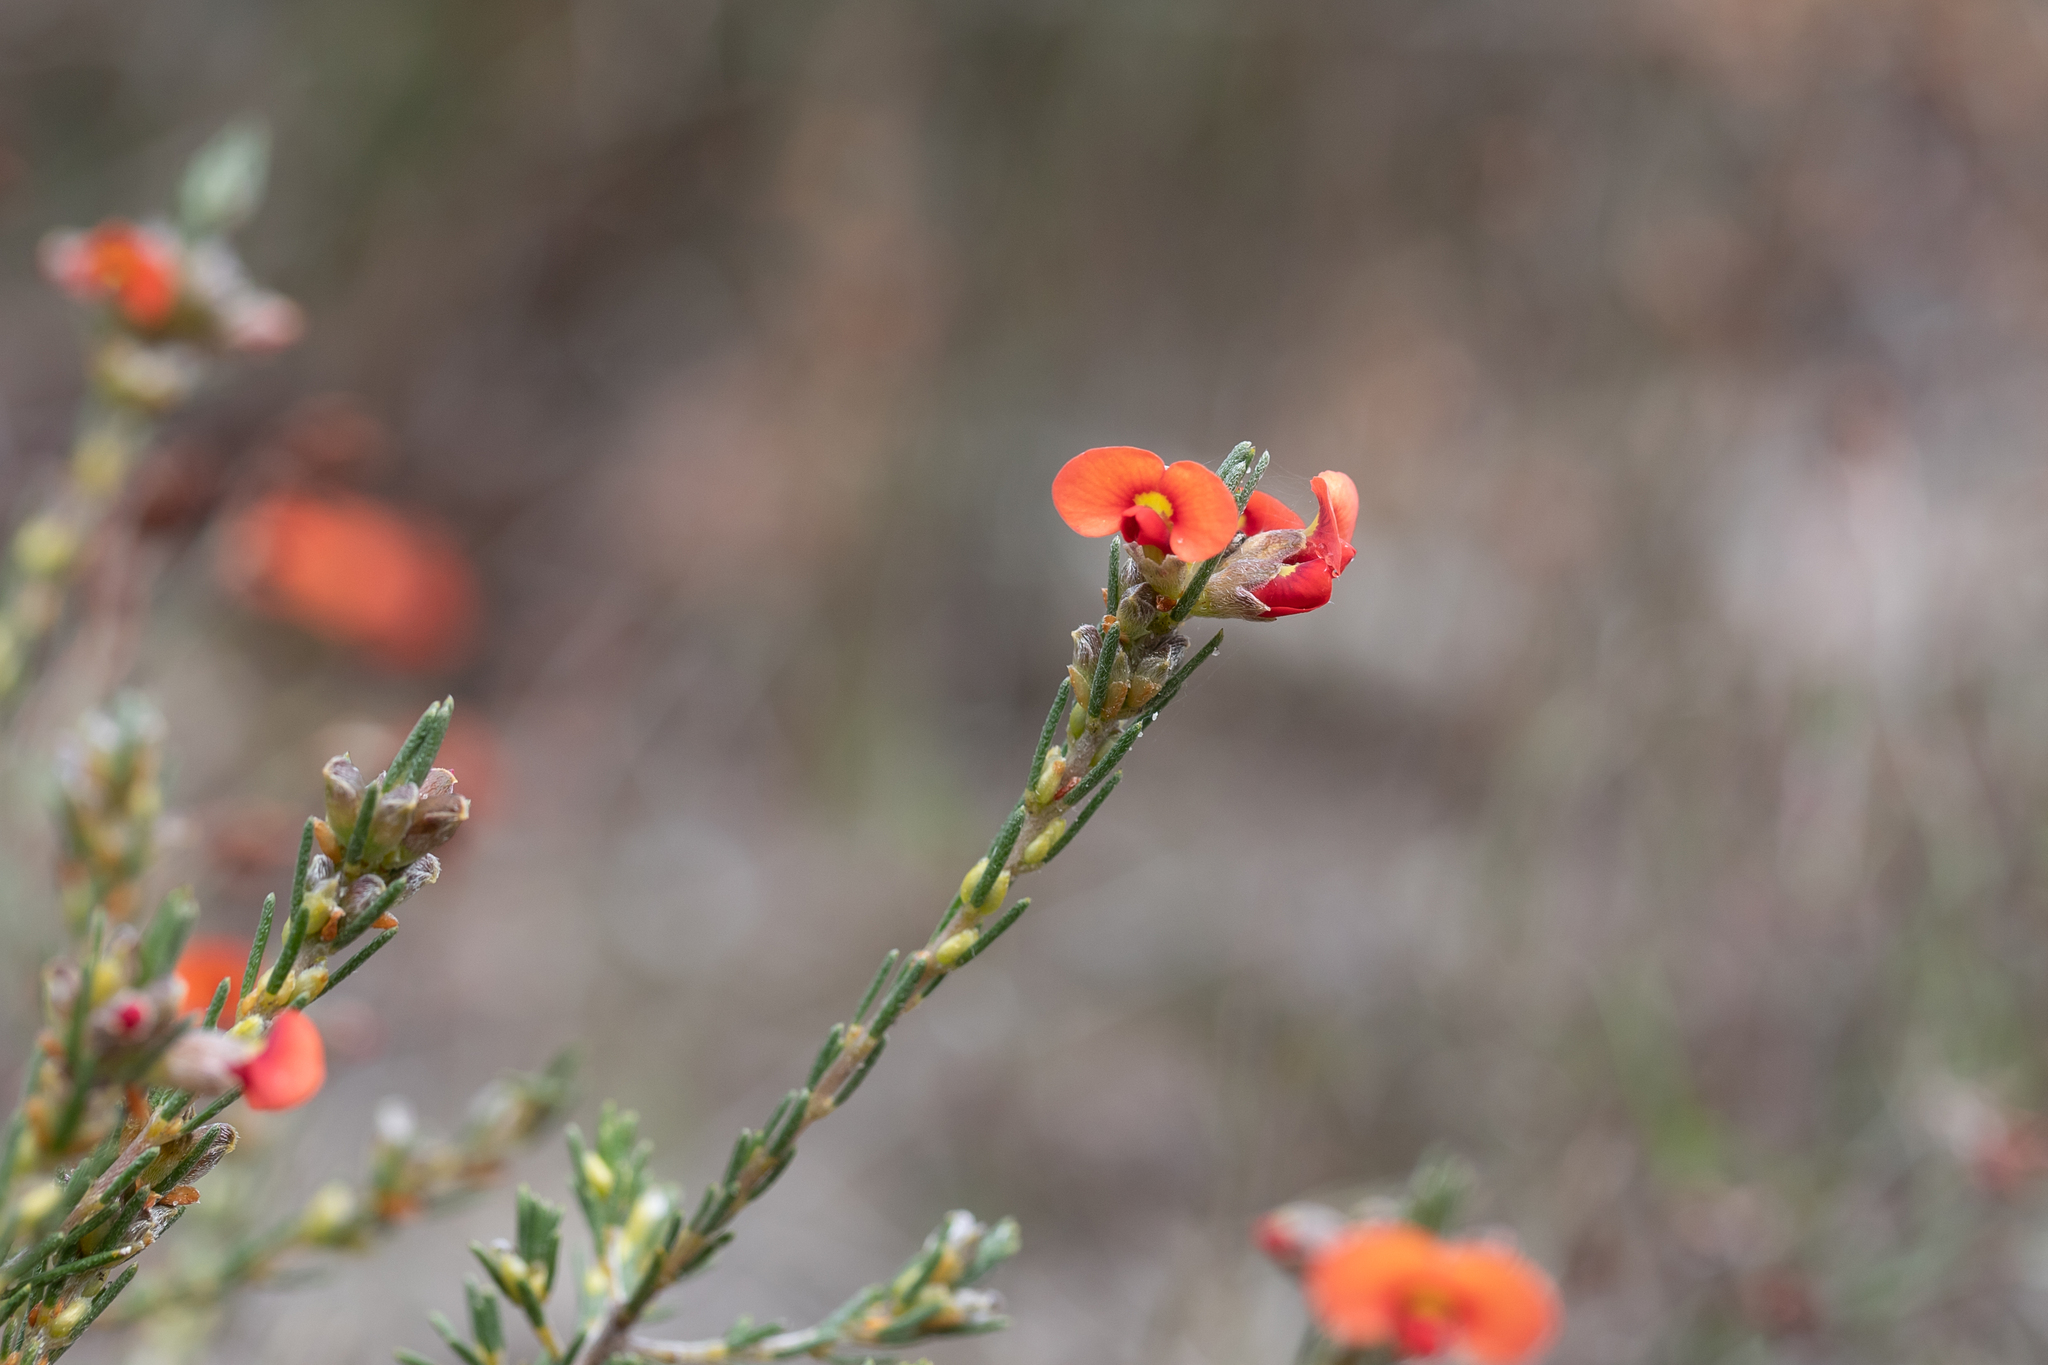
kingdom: Plantae
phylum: Tracheophyta
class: Magnoliopsida
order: Fabales
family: Fabaceae
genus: Dillwynia
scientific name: Dillwynia sericea
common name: Showy parrot-pea
